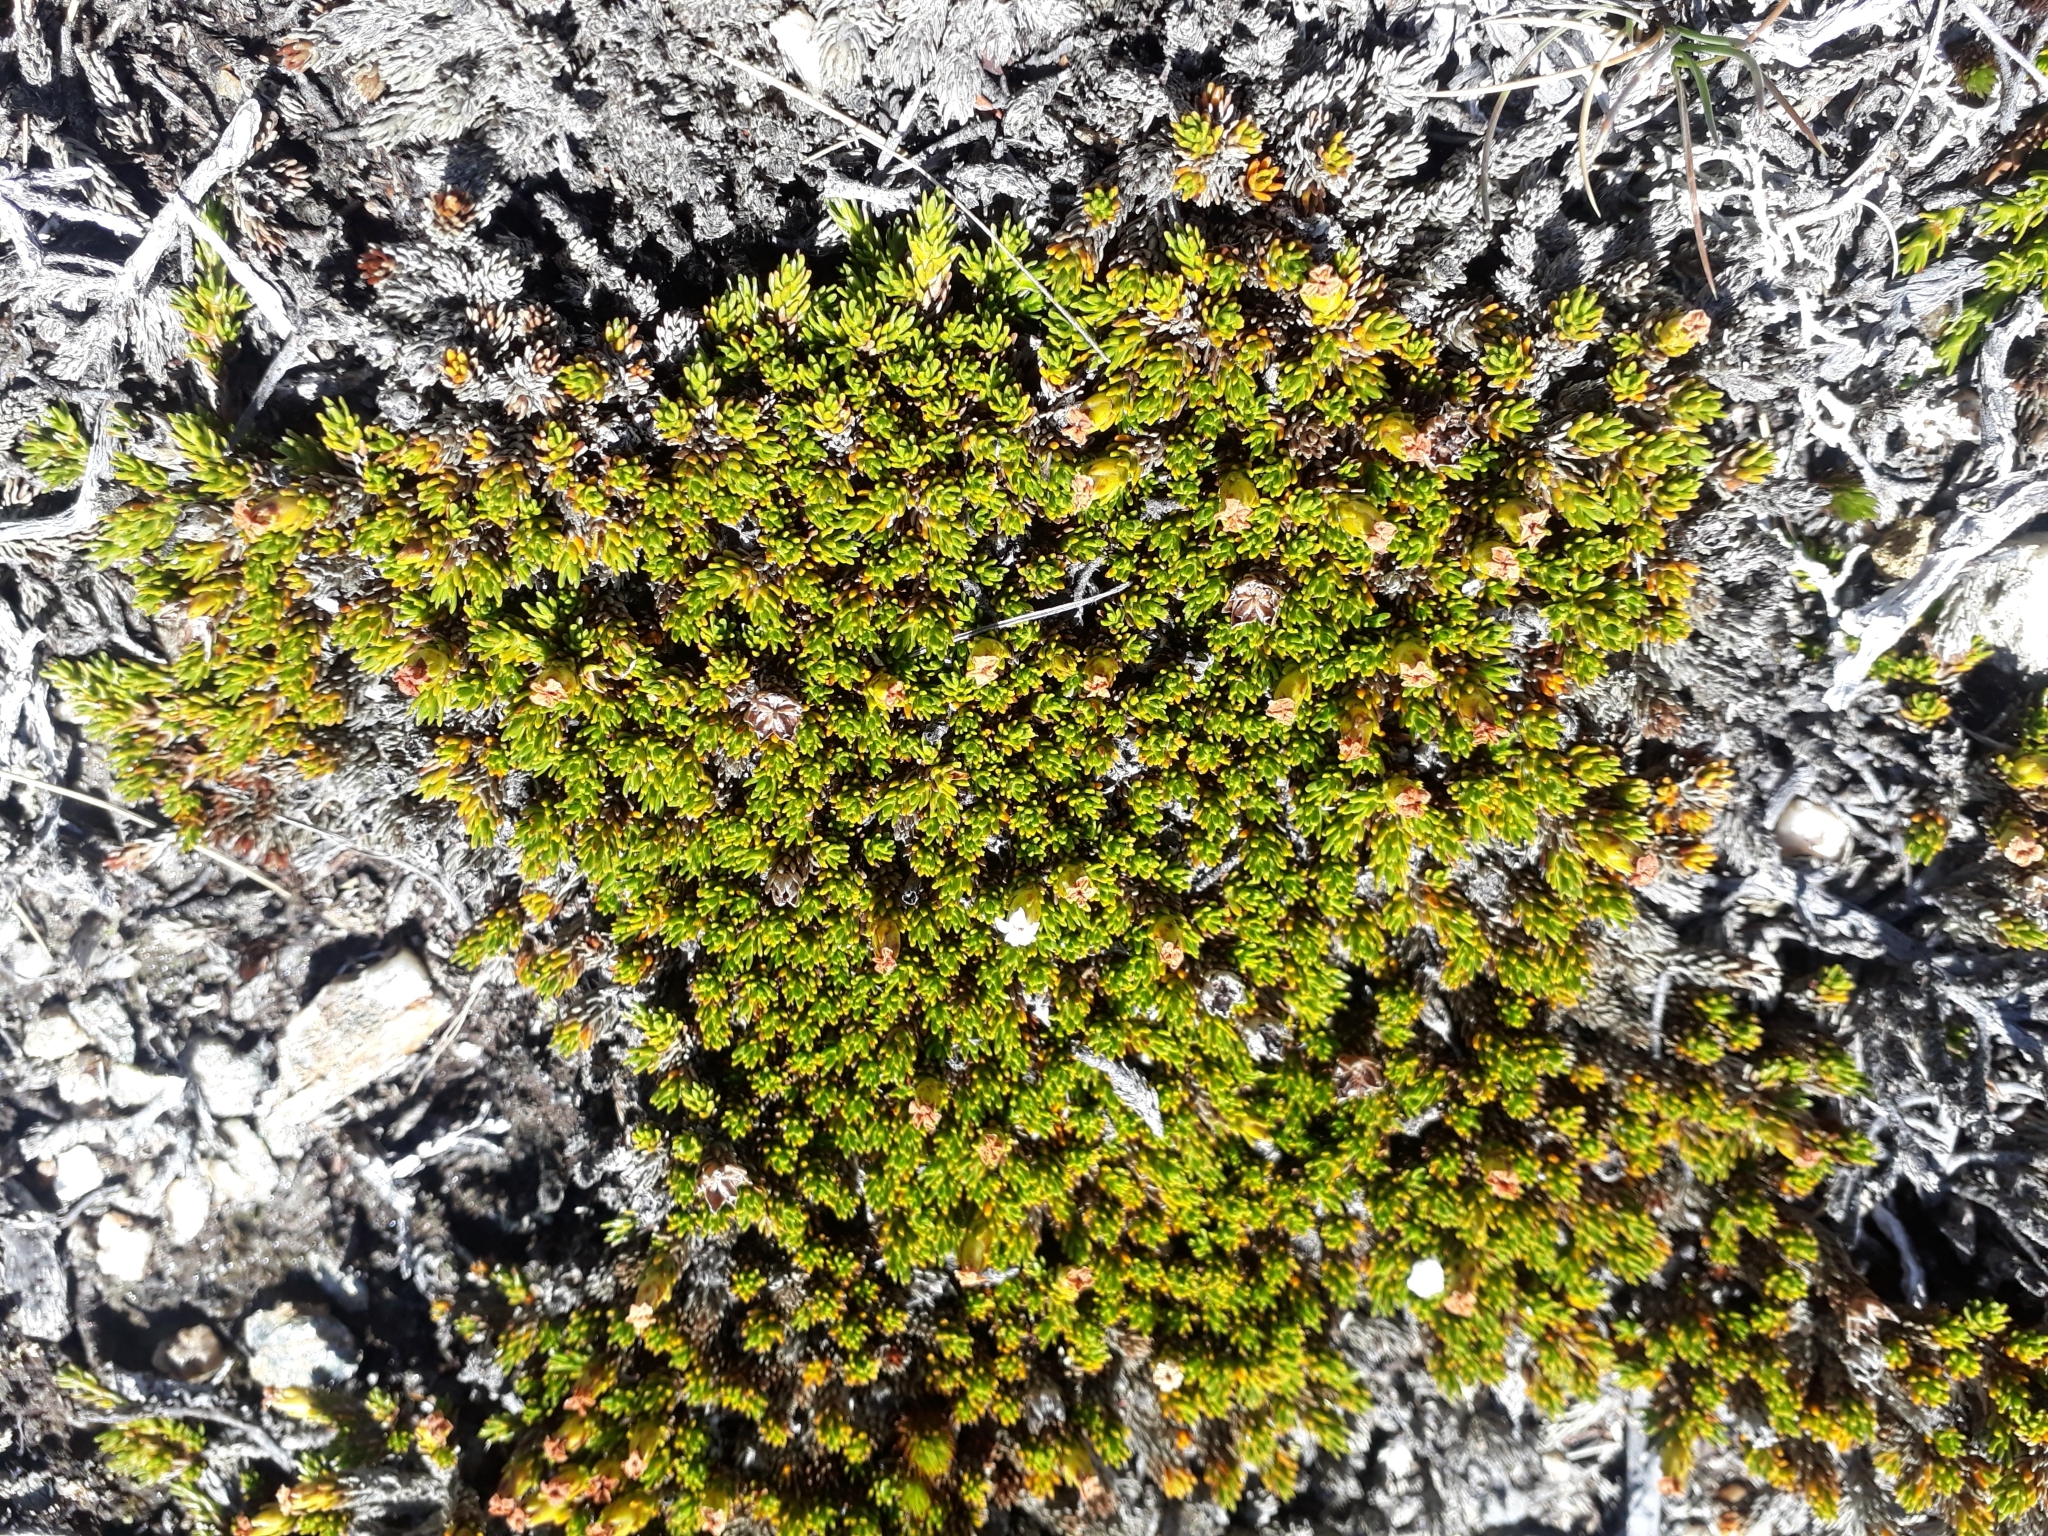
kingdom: Plantae
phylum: Tracheophyta
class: Magnoliopsida
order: Ericales
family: Ericaceae
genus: Dracophyllum
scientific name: Dracophyllum muscoides
